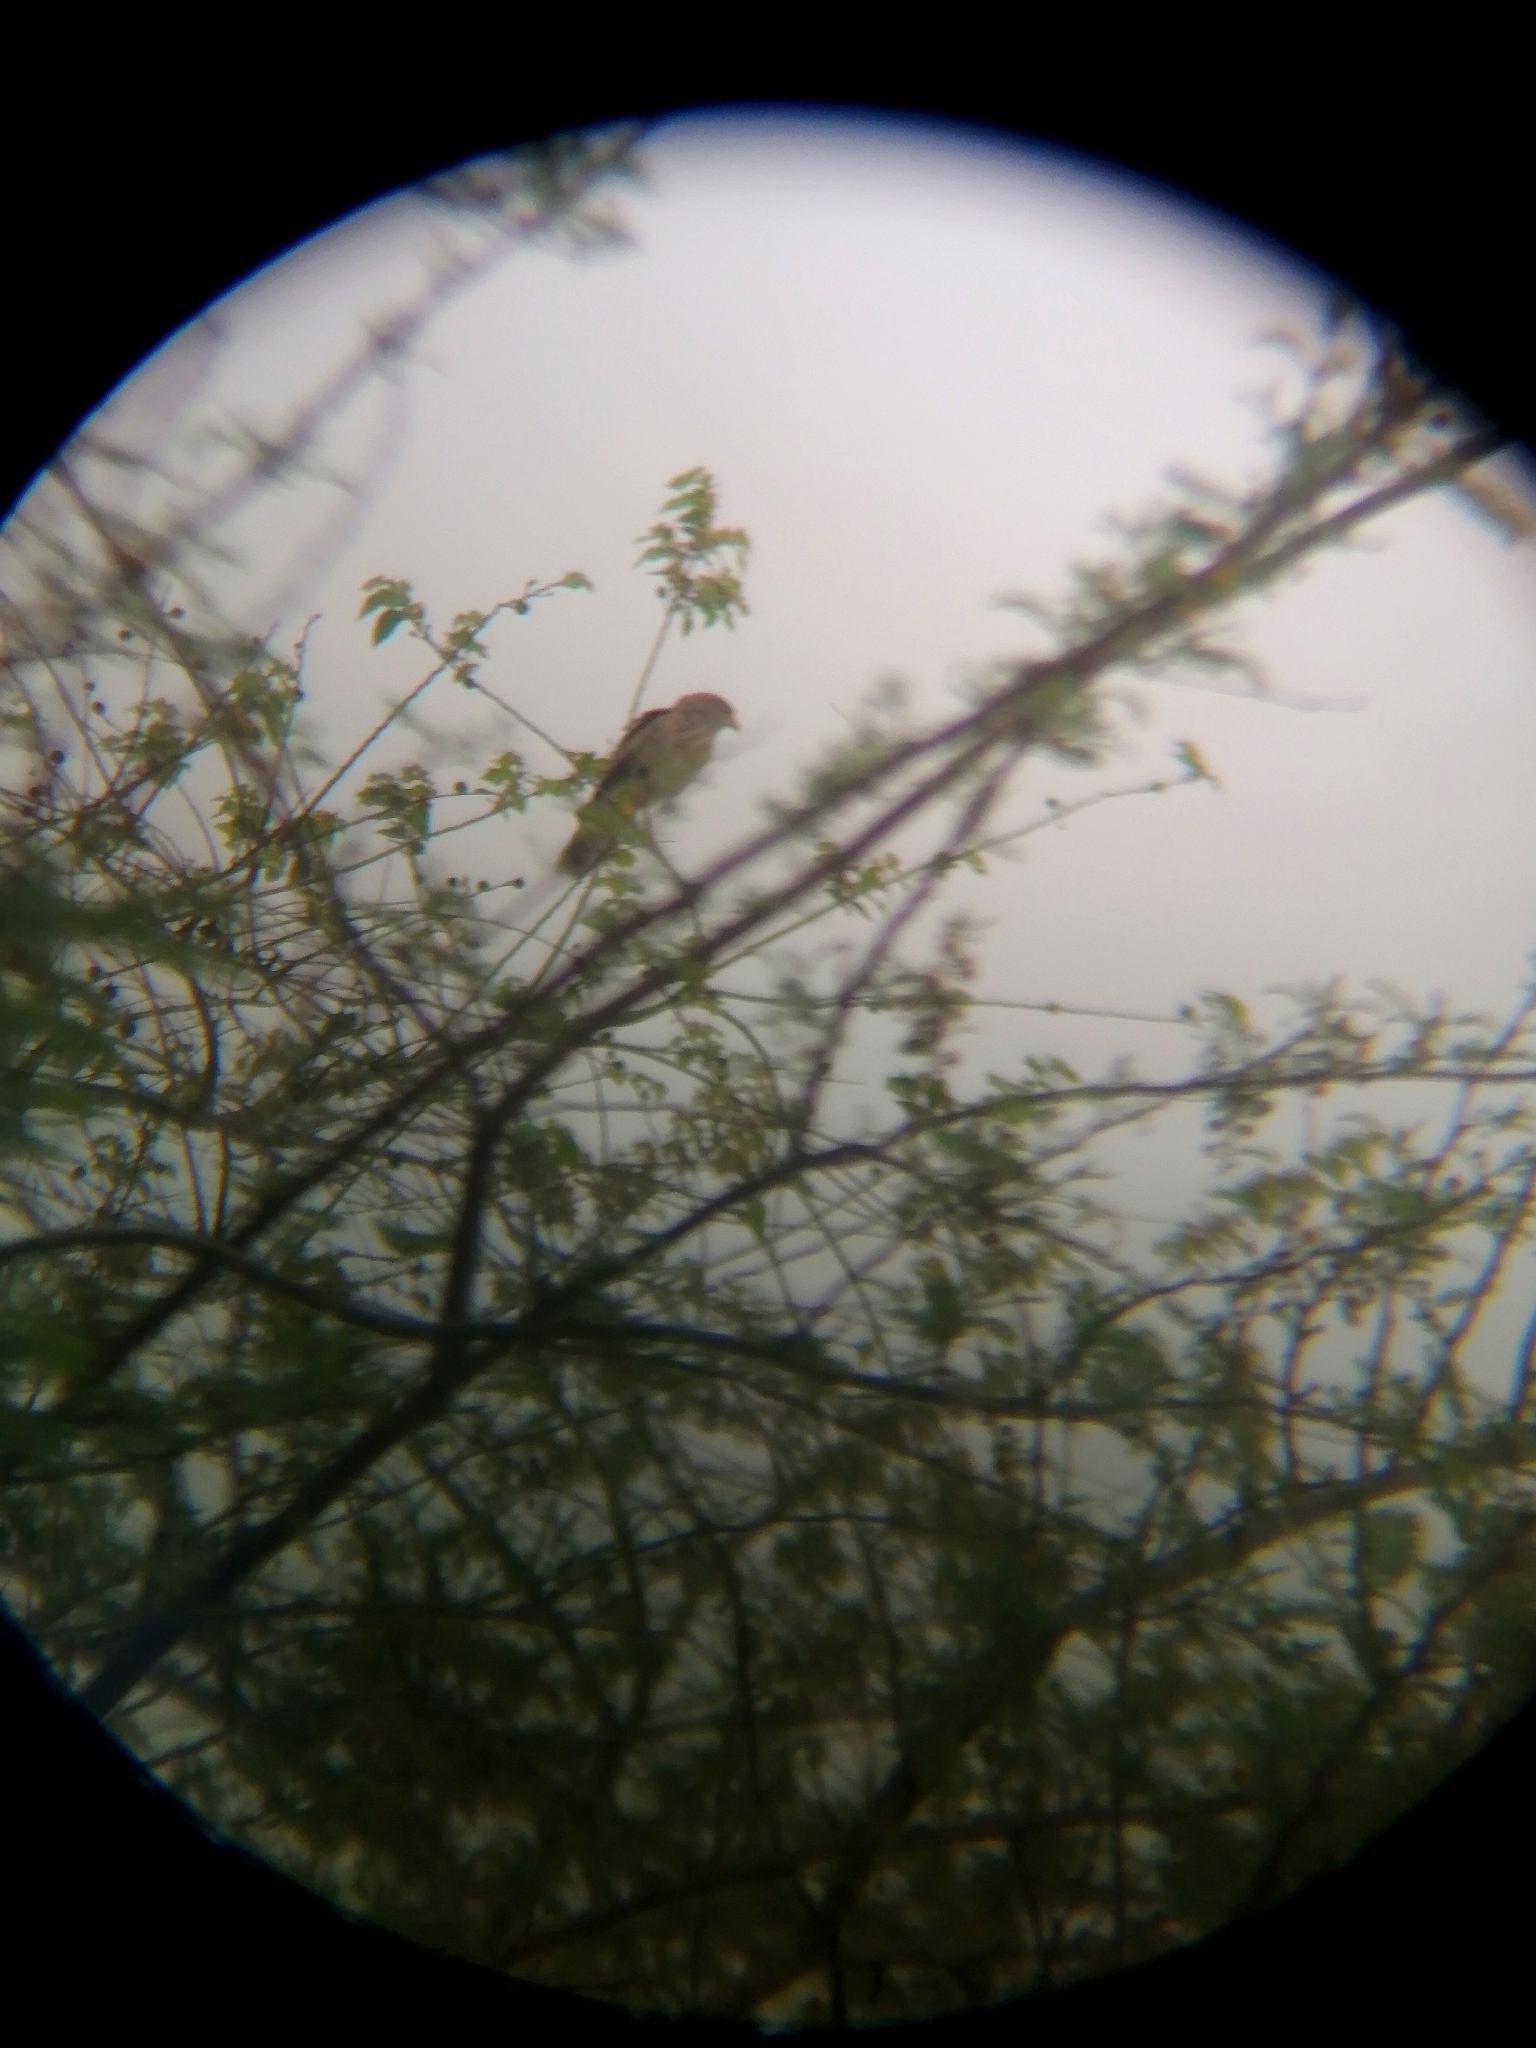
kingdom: Animalia
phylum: Chordata
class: Aves
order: Accipitriformes
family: Accipitridae
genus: Rupornis
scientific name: Rupornis magnirostris
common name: Roadside hawk
